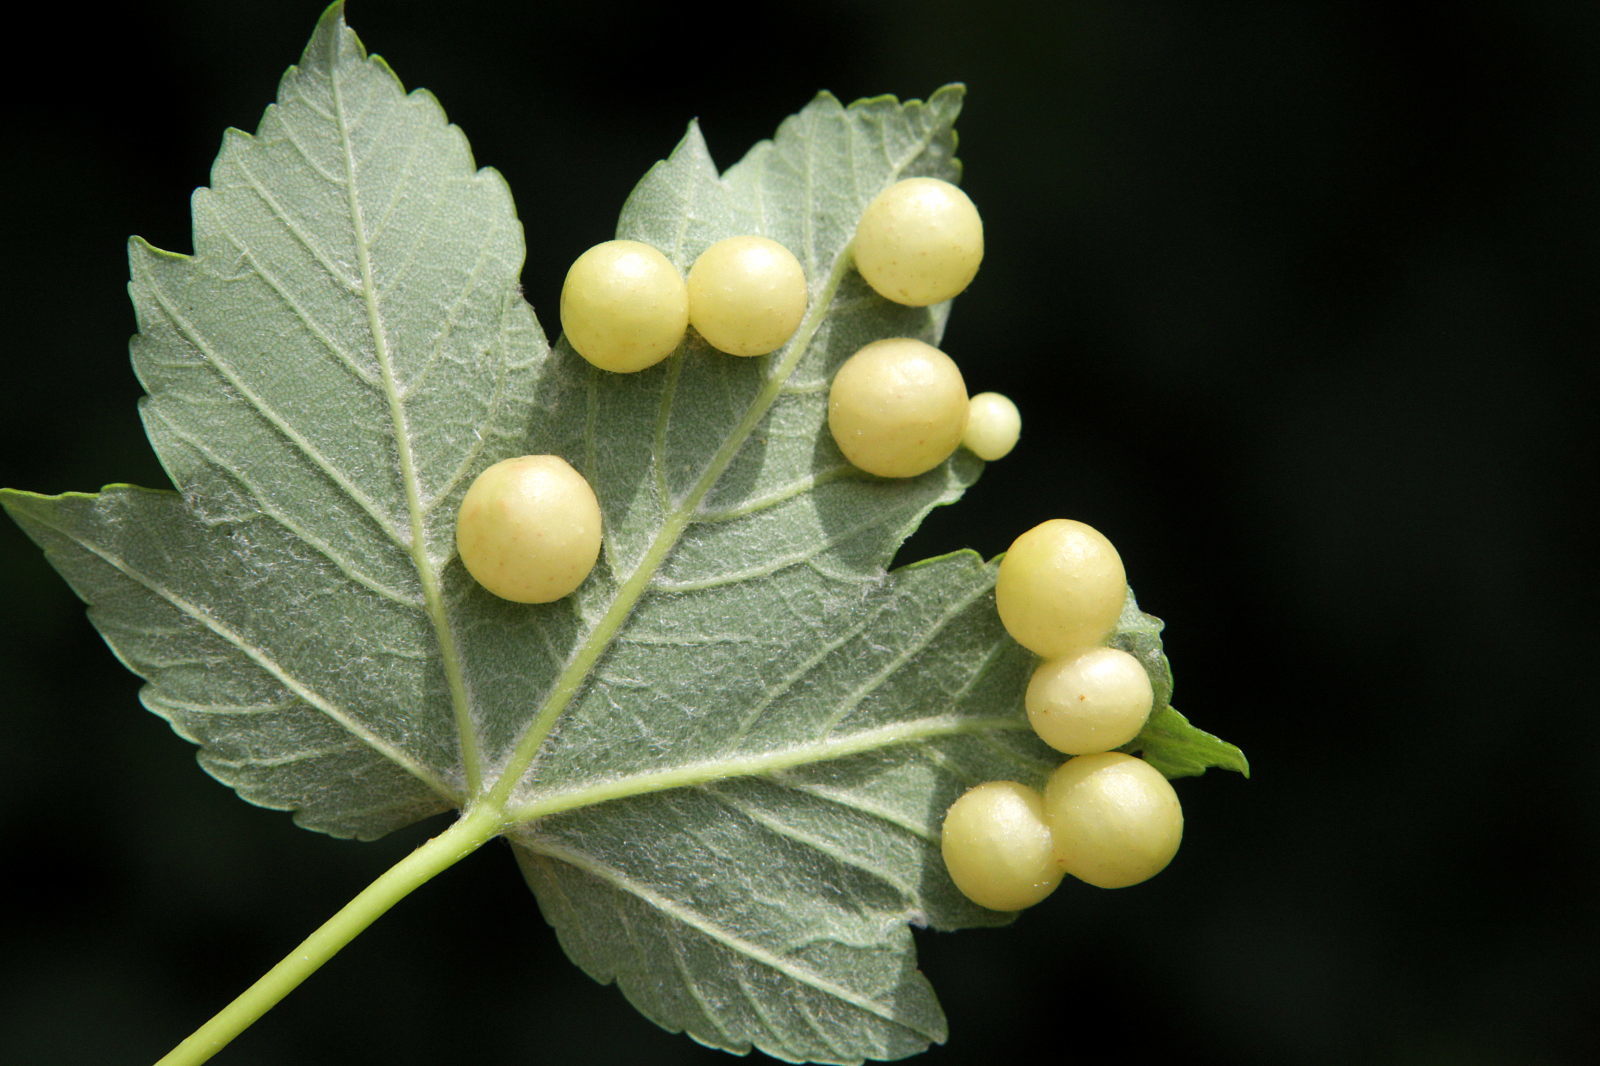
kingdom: Animalia
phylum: Arthropoda
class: Insecta
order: Hymenoptera
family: Cynipidae
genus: Pediaspis
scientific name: Pediaspis aceris
